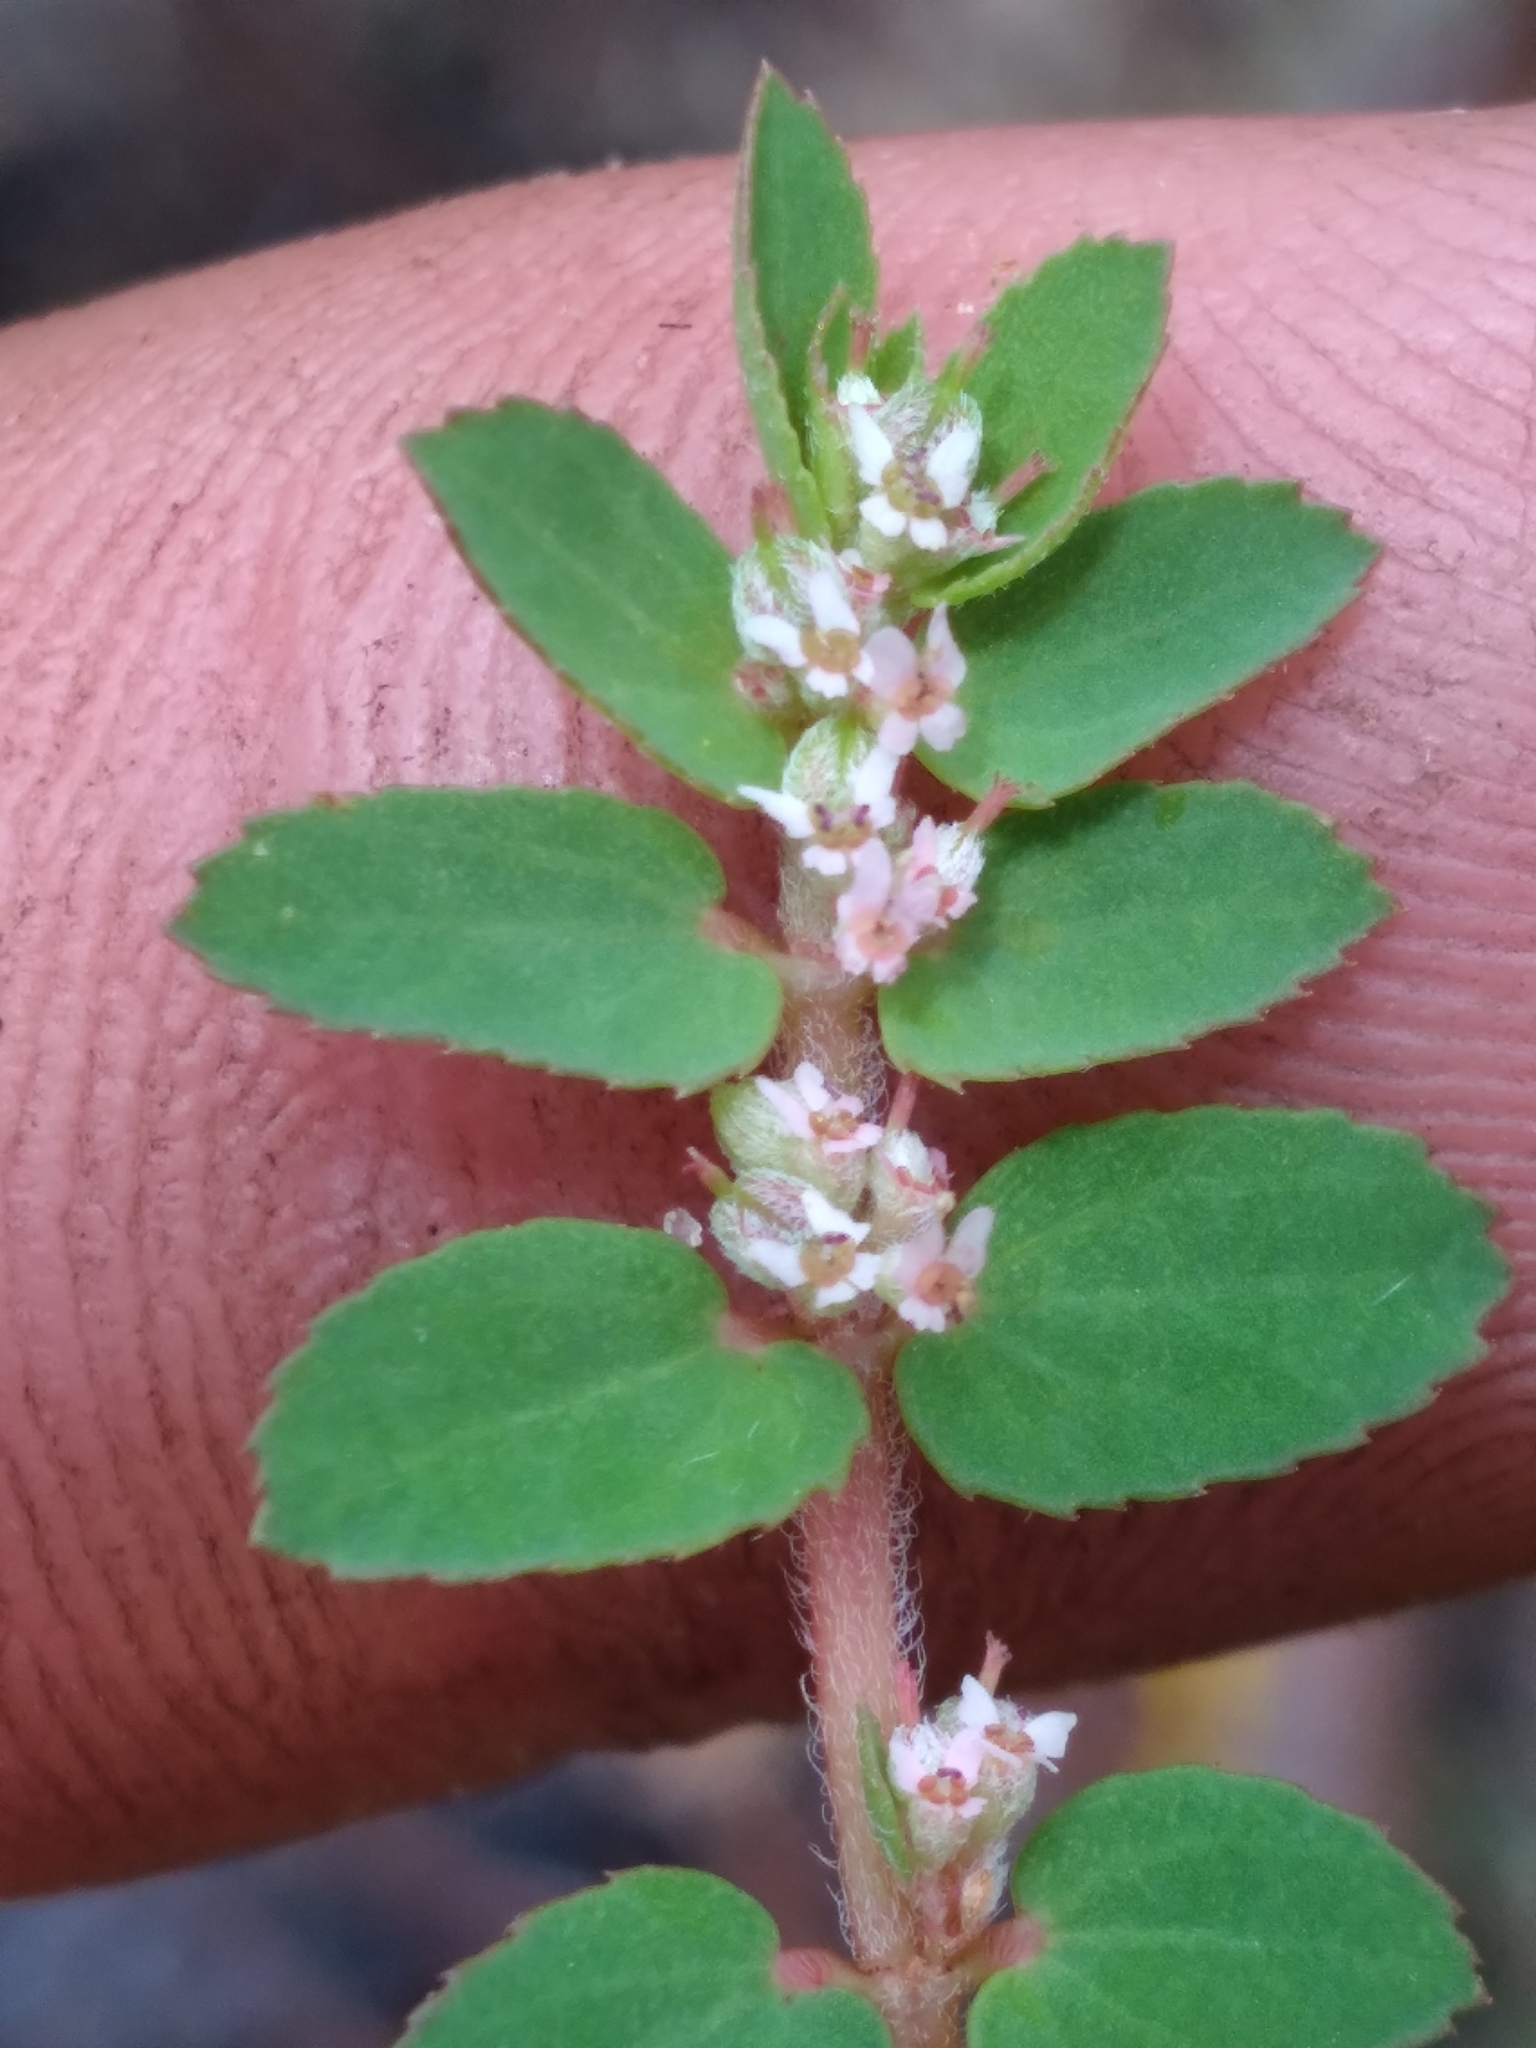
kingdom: Plantae
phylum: Tracheophyta
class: Magnoliopsida
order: Malpighiales
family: Euphorbiaceae
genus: Euphorbia
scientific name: Euphorbia thymifolia
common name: Gulf sandmat
